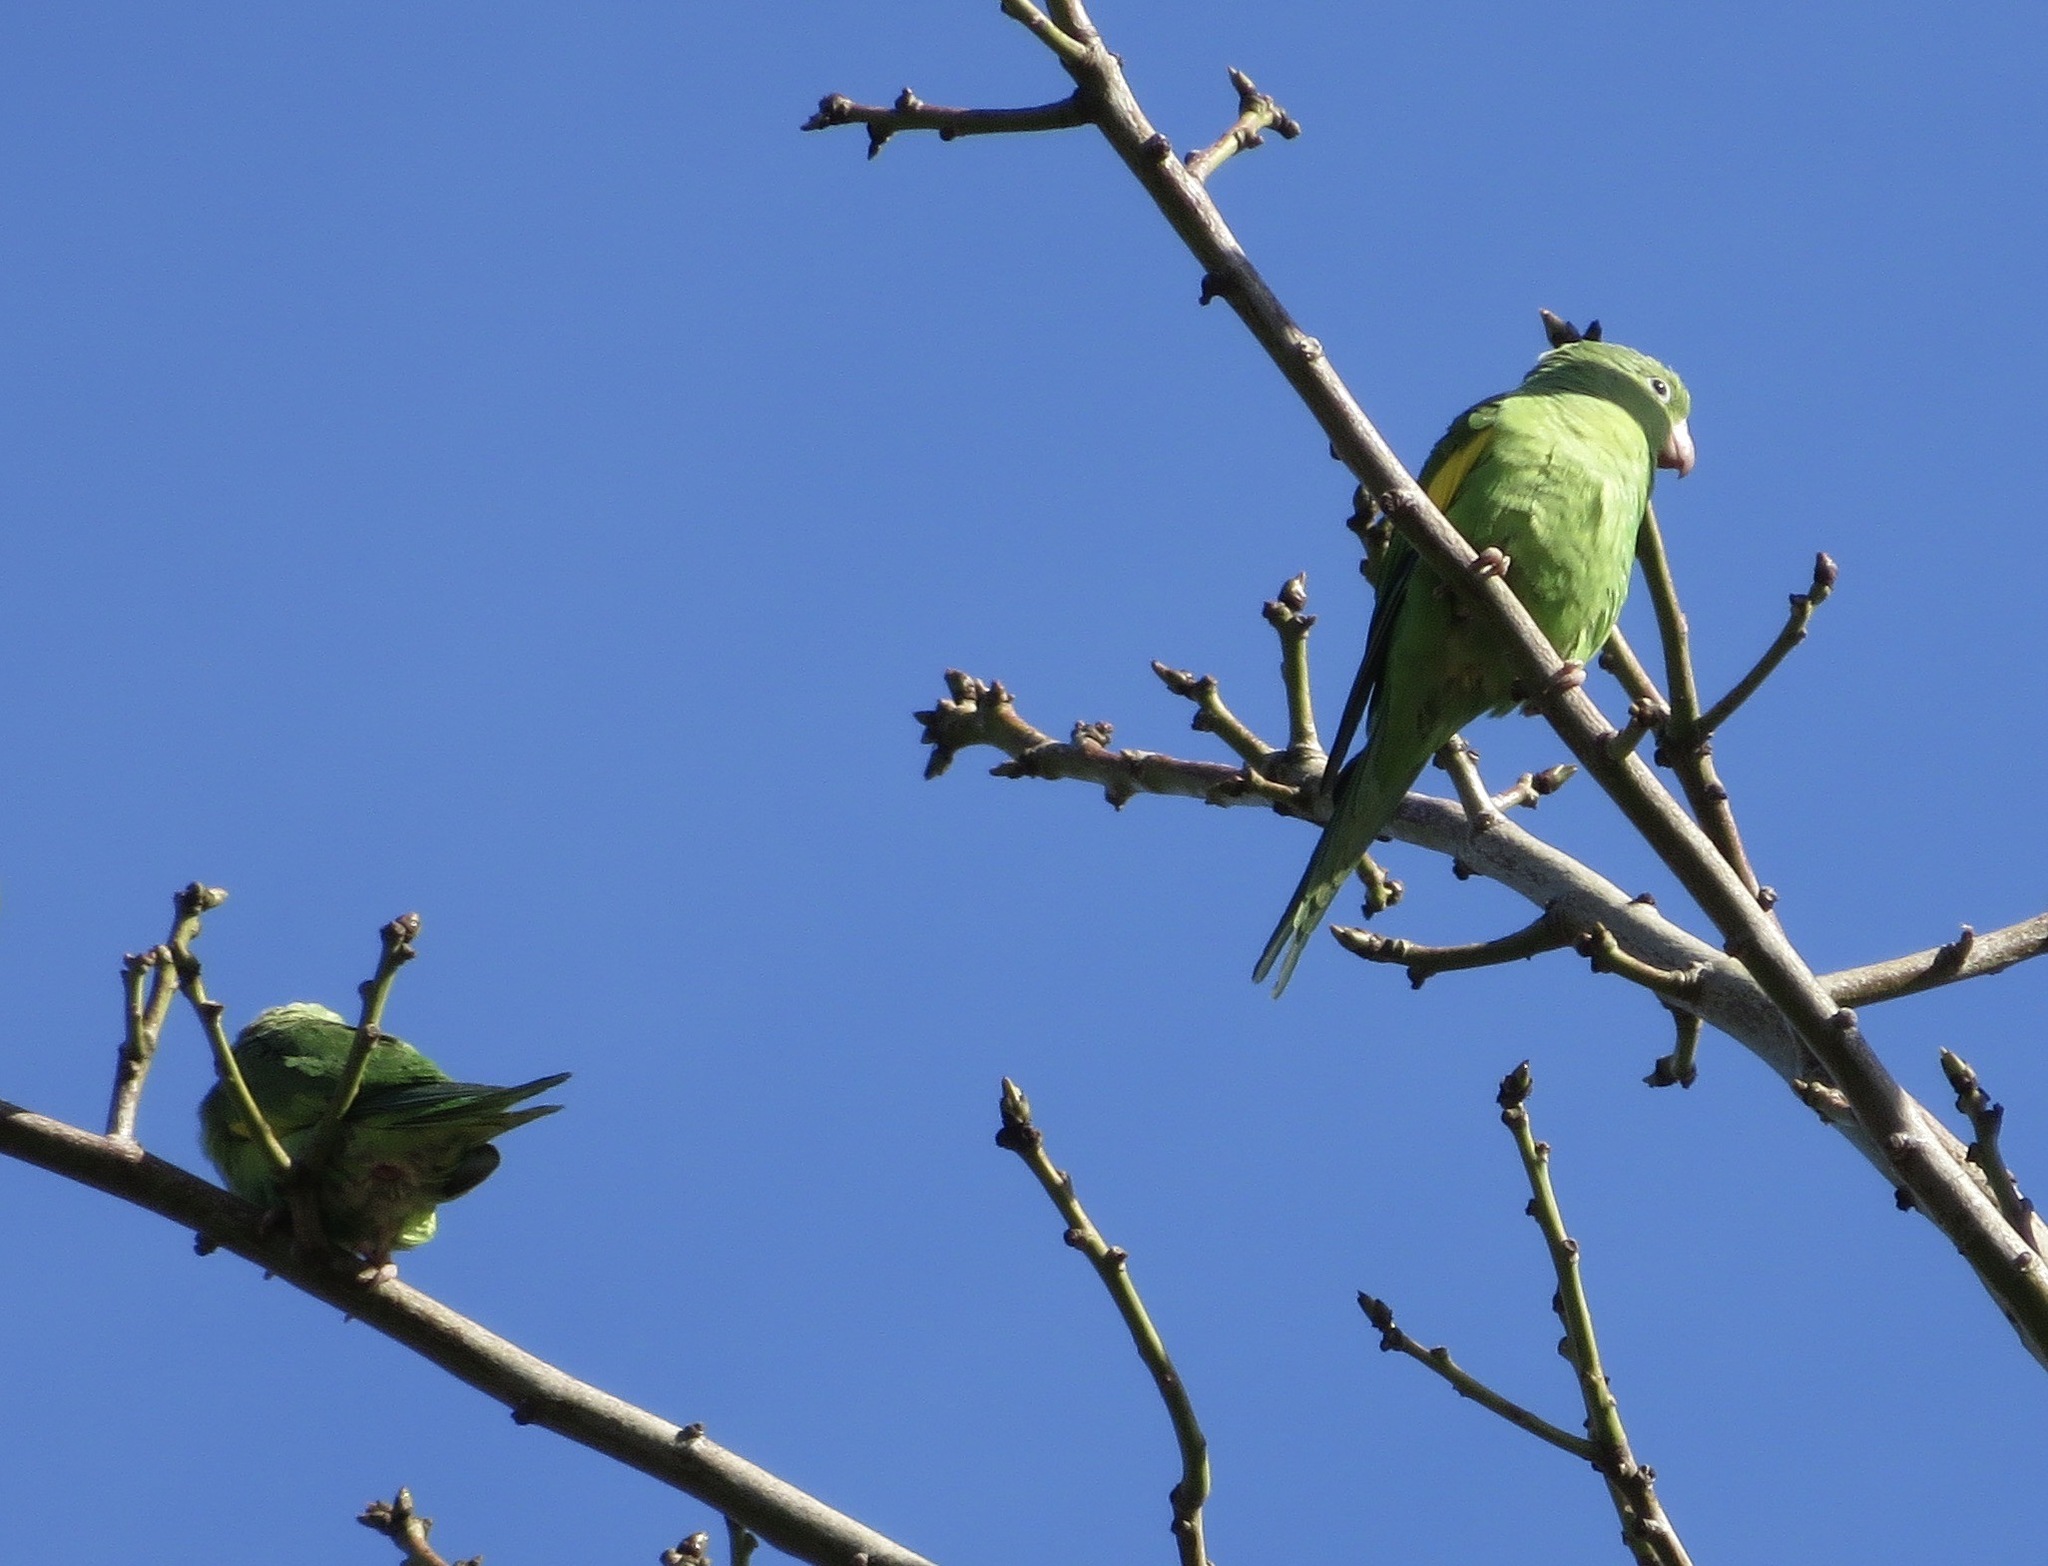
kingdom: Animalia
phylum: Chordata
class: Aves
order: Psittaciformes
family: Psittacidae
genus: Brotogeris
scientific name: Brotogeris chiriri
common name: Yellow-chevroned parakeet
